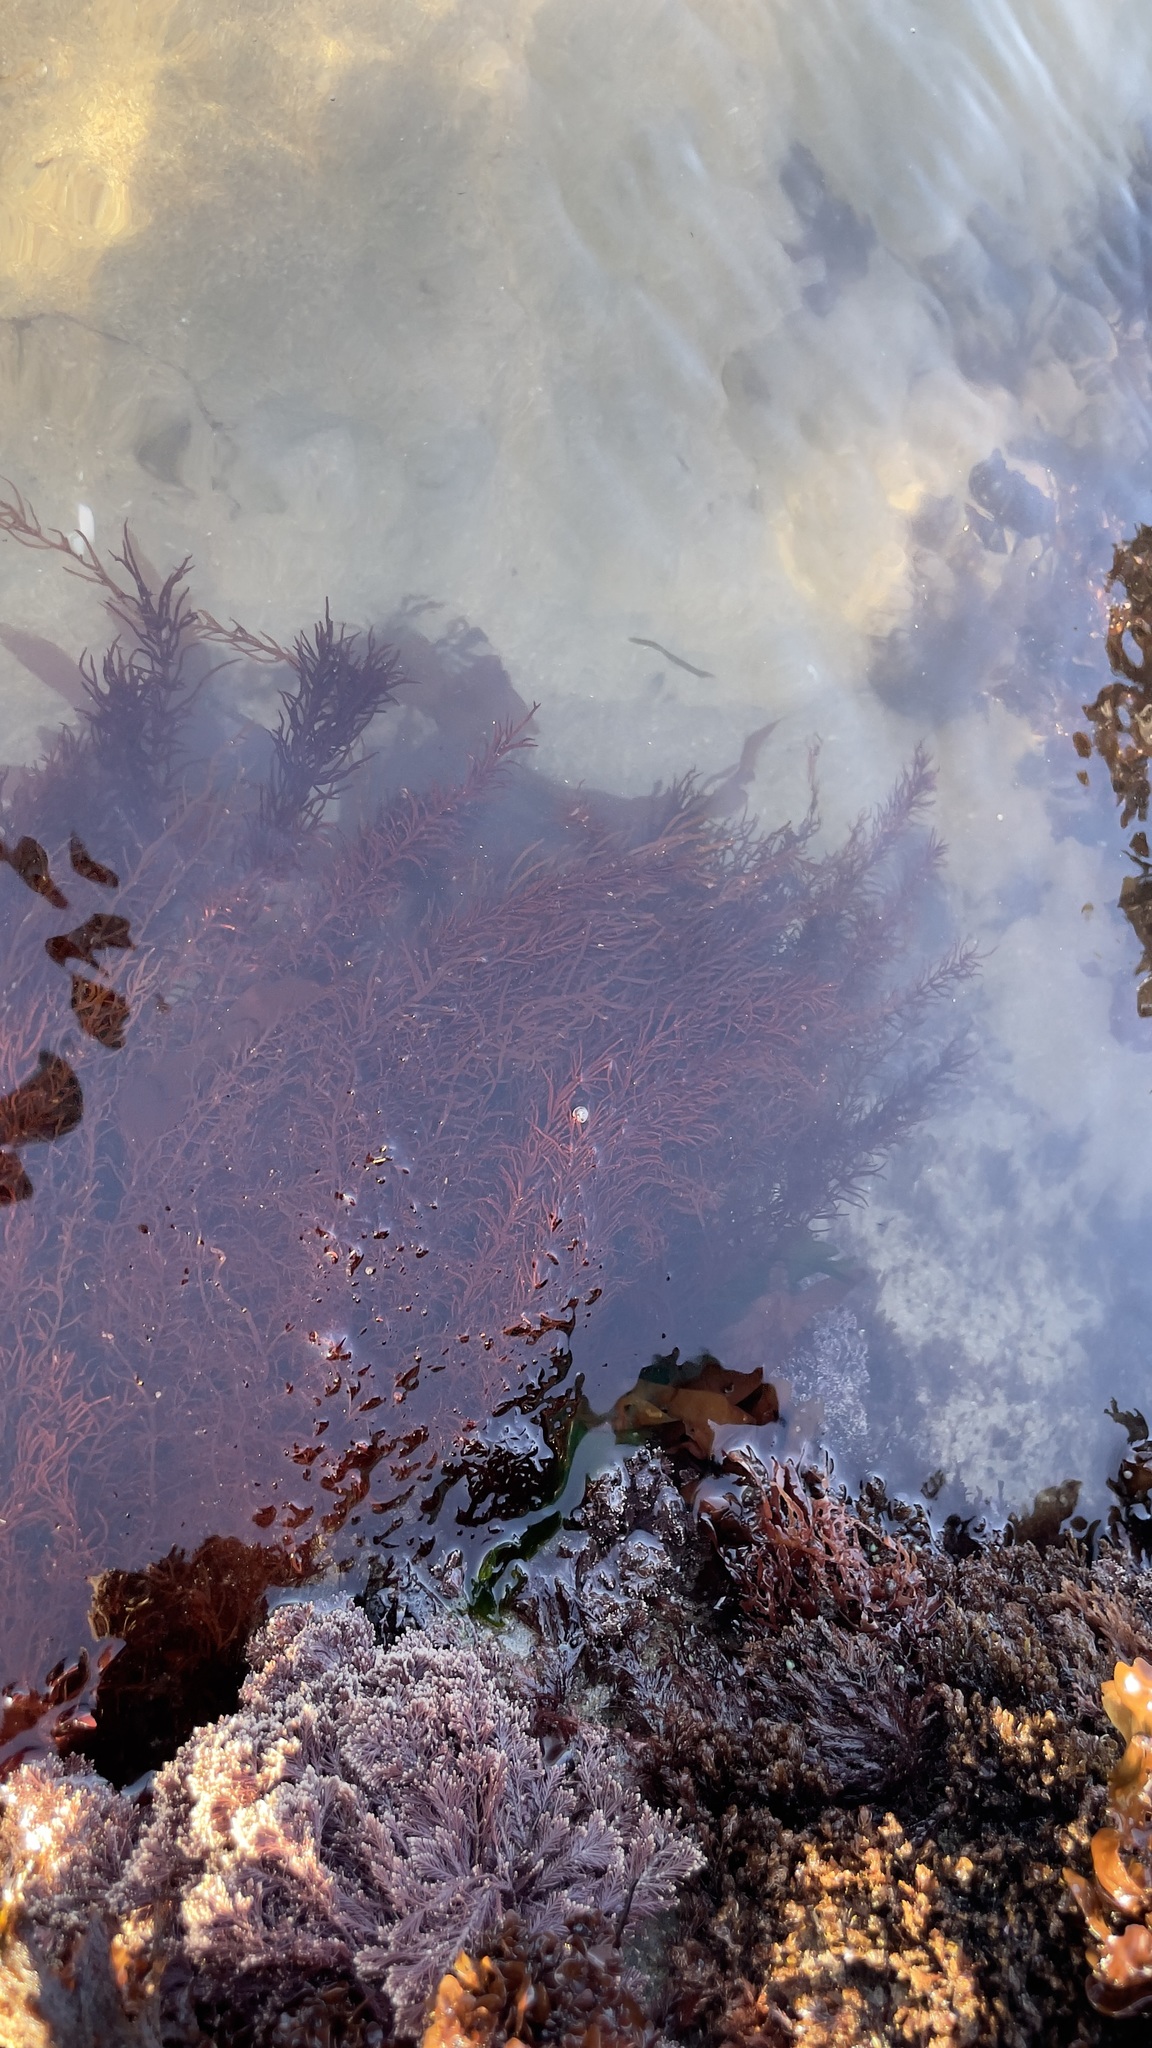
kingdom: Plantae
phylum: Rhodophyta
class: Florideophyceae
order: Halymeniales
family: Halymeniaceae
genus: Grateloupia
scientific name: Grateloupia Prionitis sternbergii
